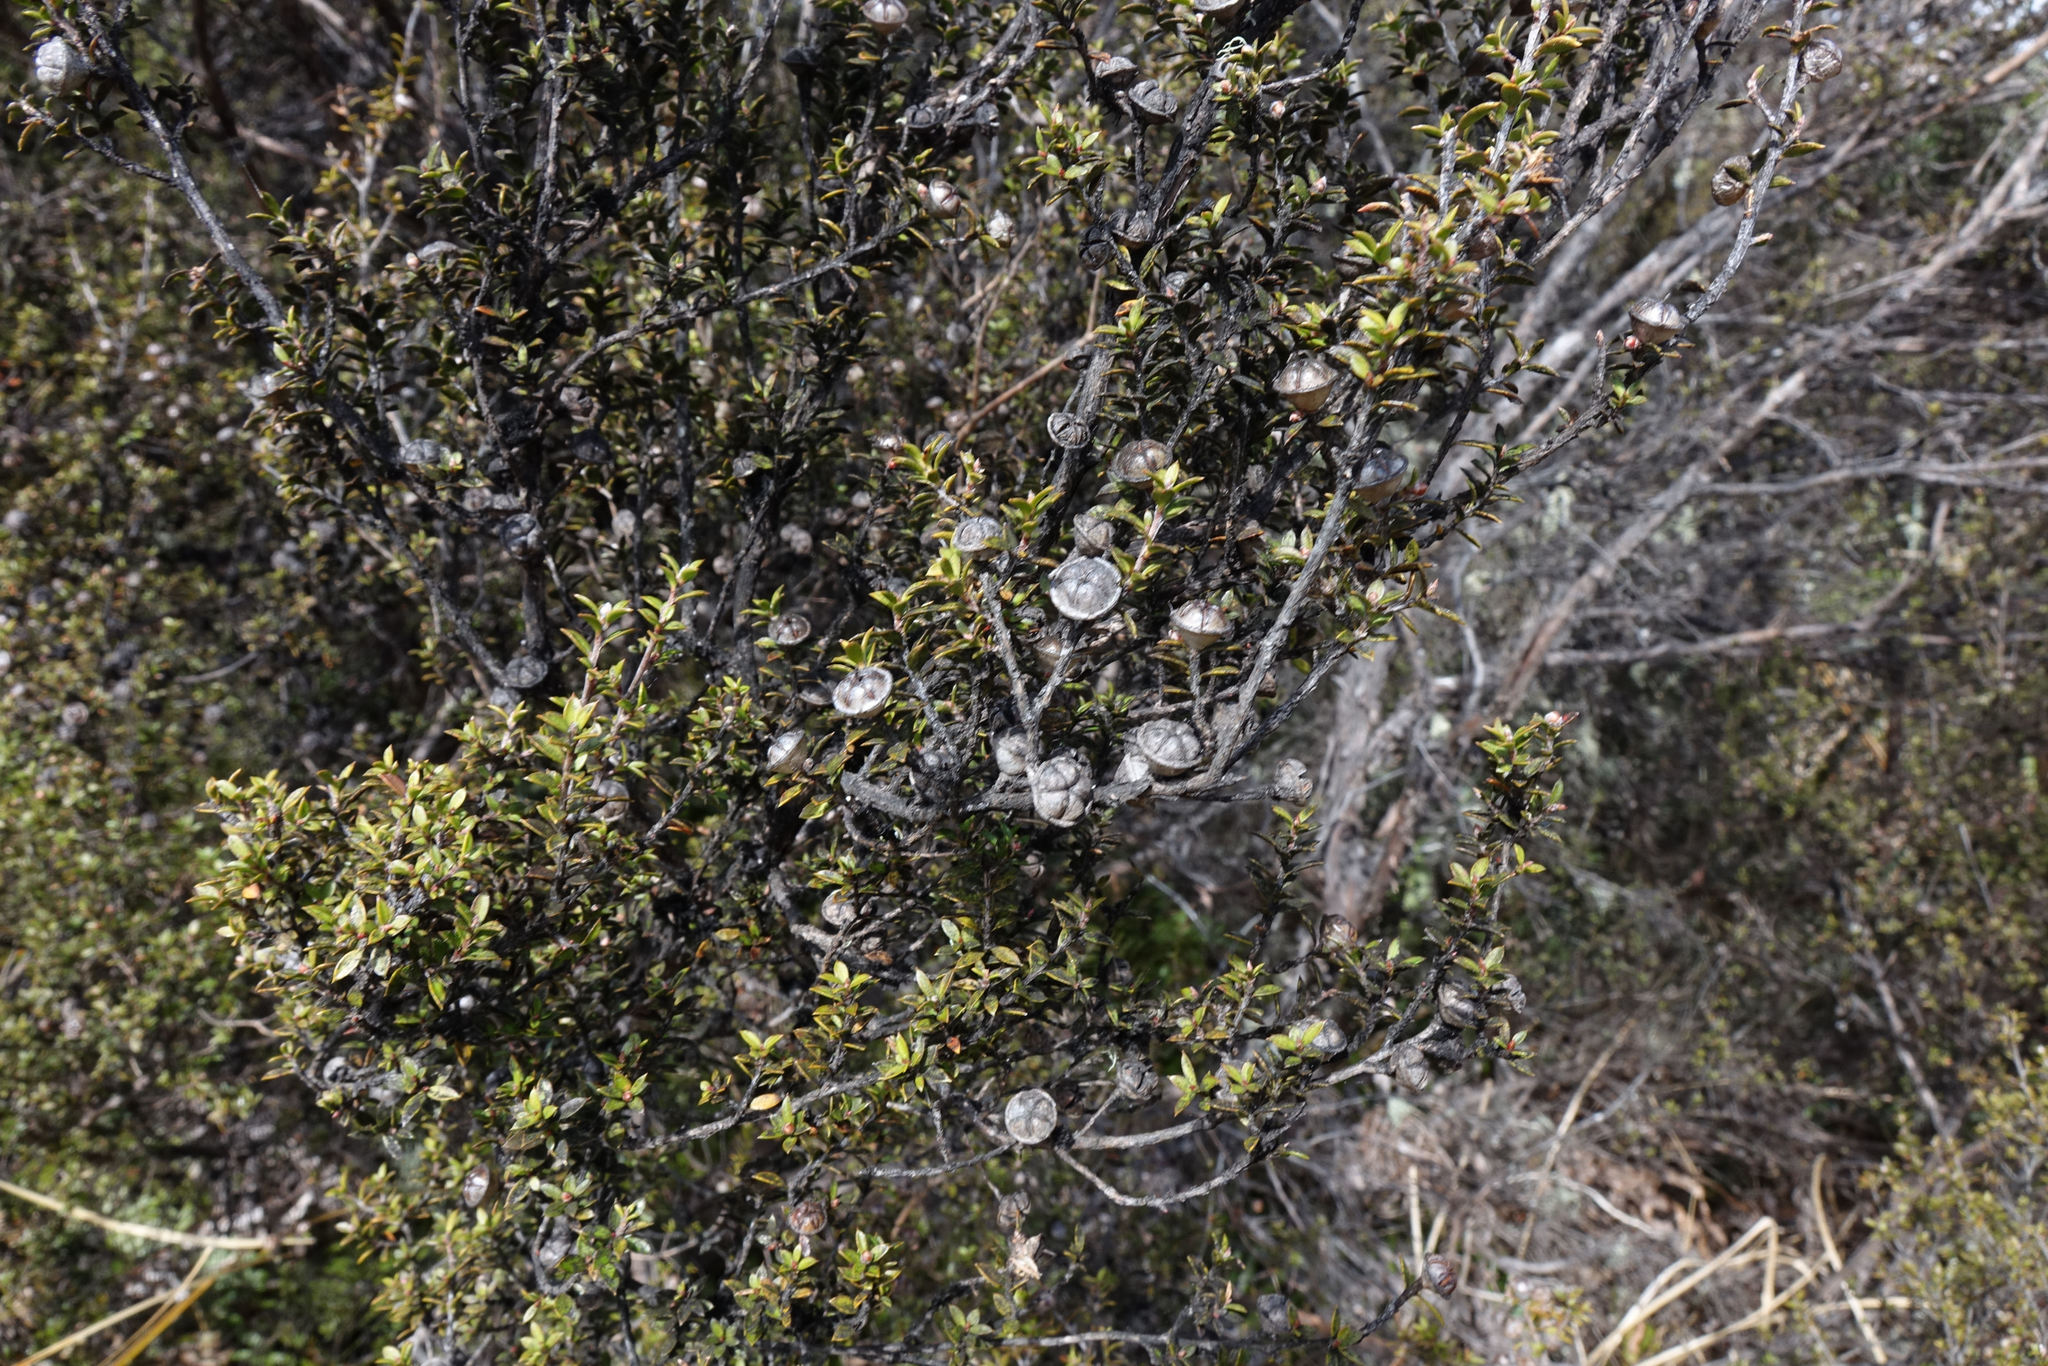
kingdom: Plantae
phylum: Tracheophyta
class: Magnoliopsida
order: Myrtales
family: Myrtaceae
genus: Leptospermum
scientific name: Leptospermum scoparium
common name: Broom tea-tree
